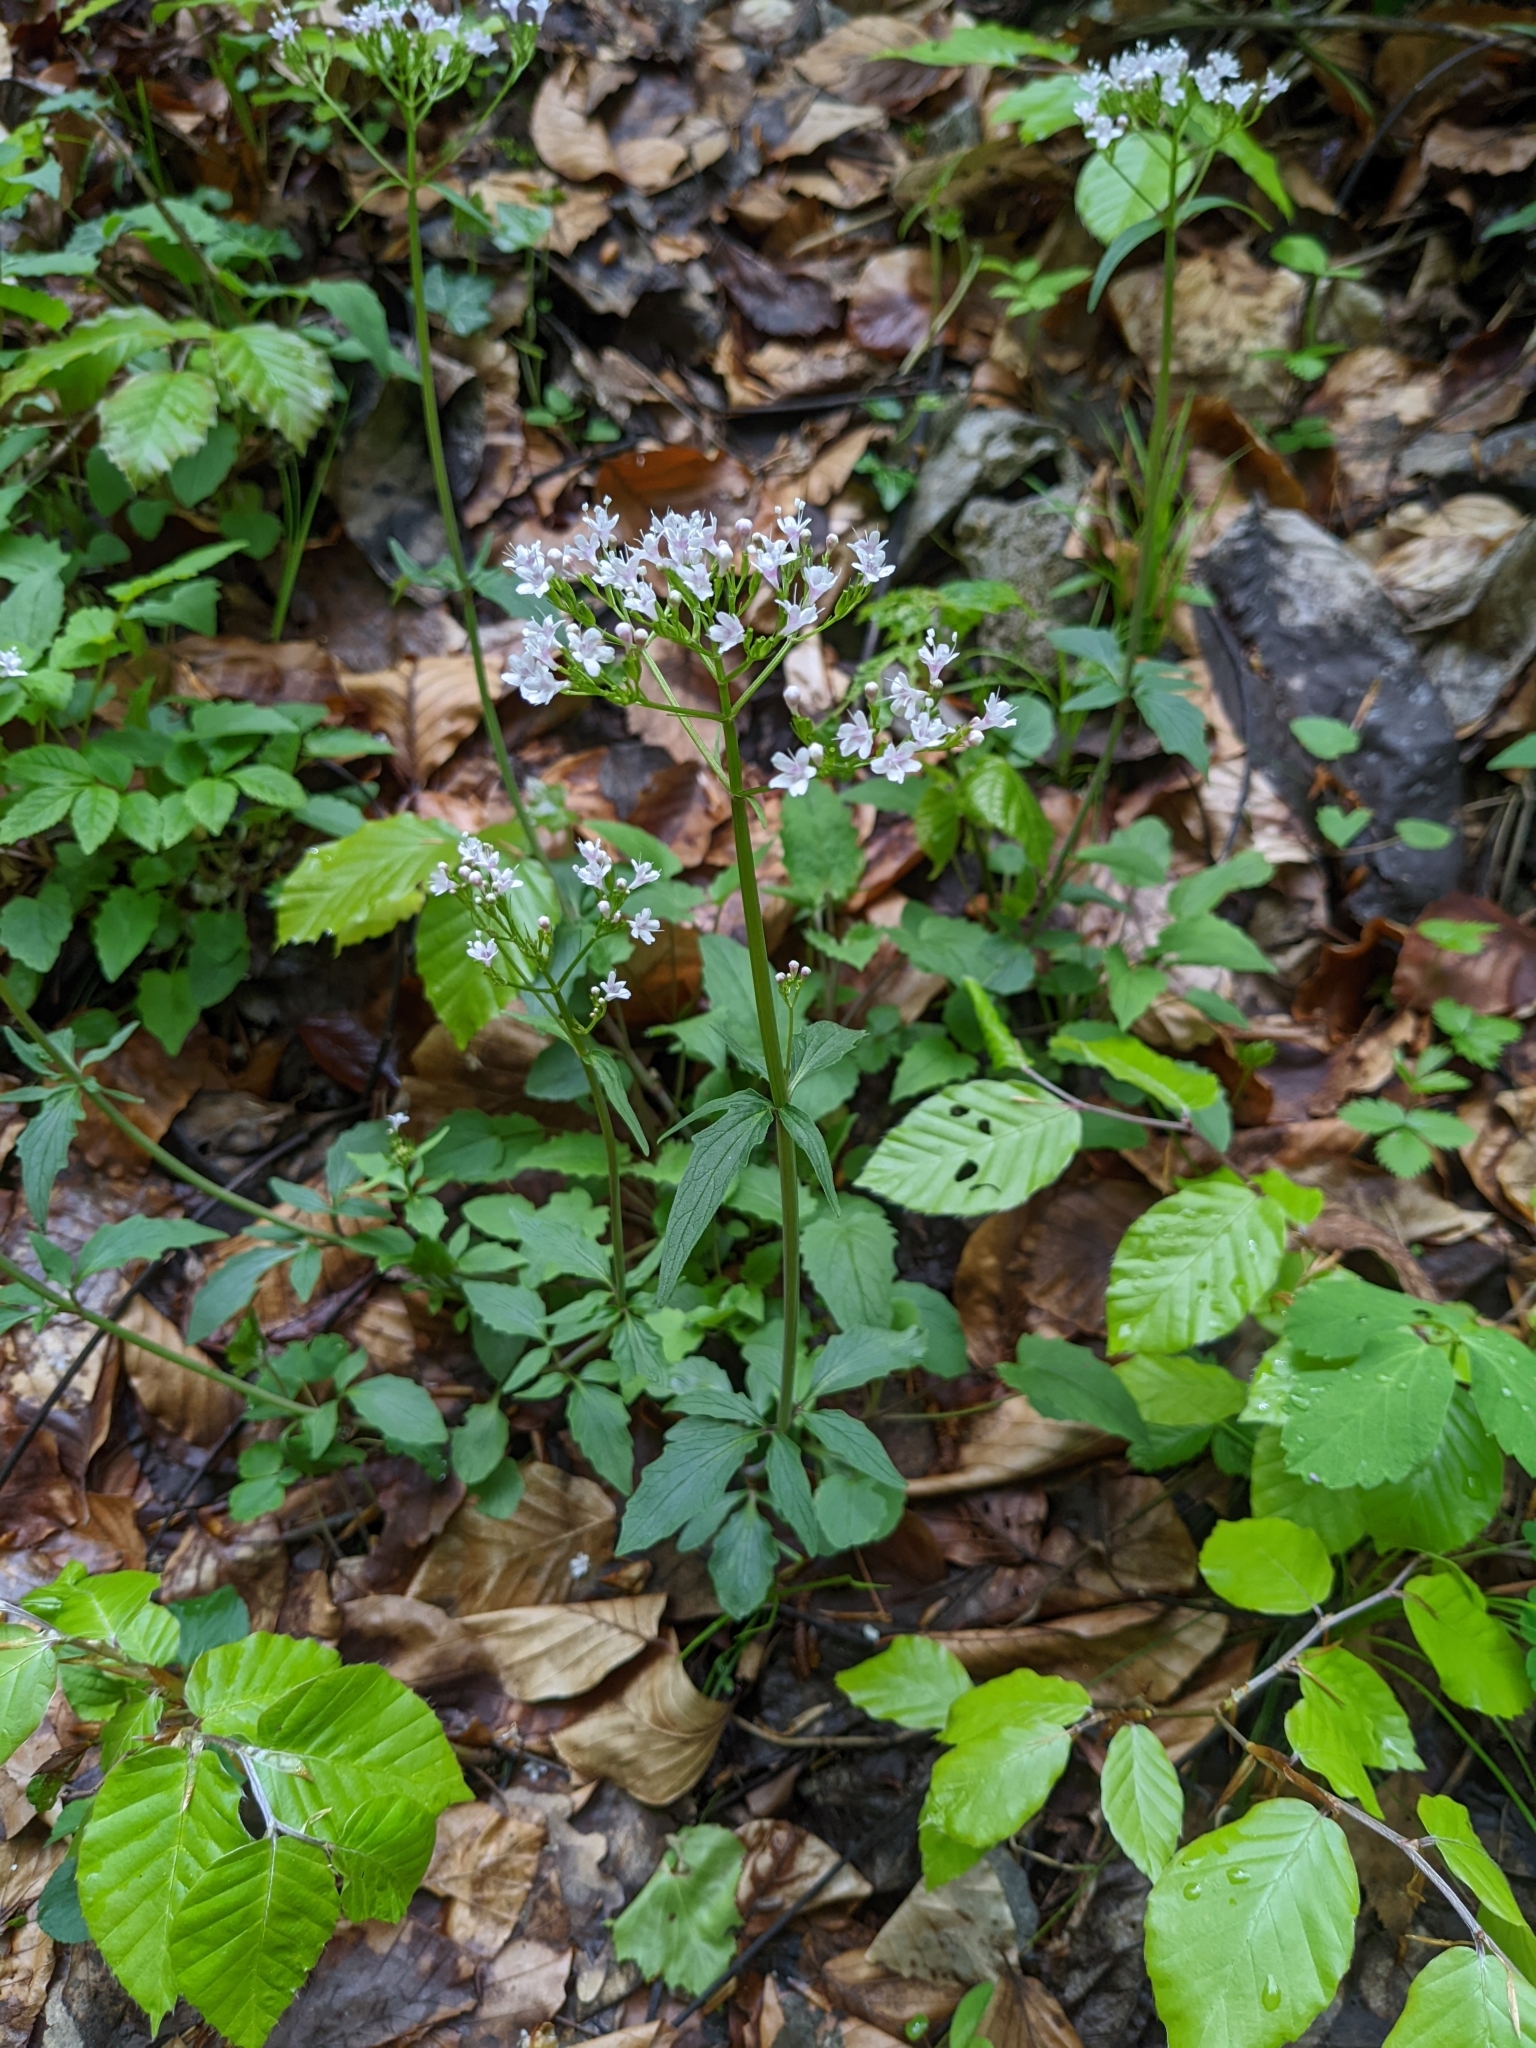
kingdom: Plantae
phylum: Tracheophyta
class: Magnoliopsida
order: Dipsacales
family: Caprifoliaceae
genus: Valeriana
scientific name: Valeriana tripteris
